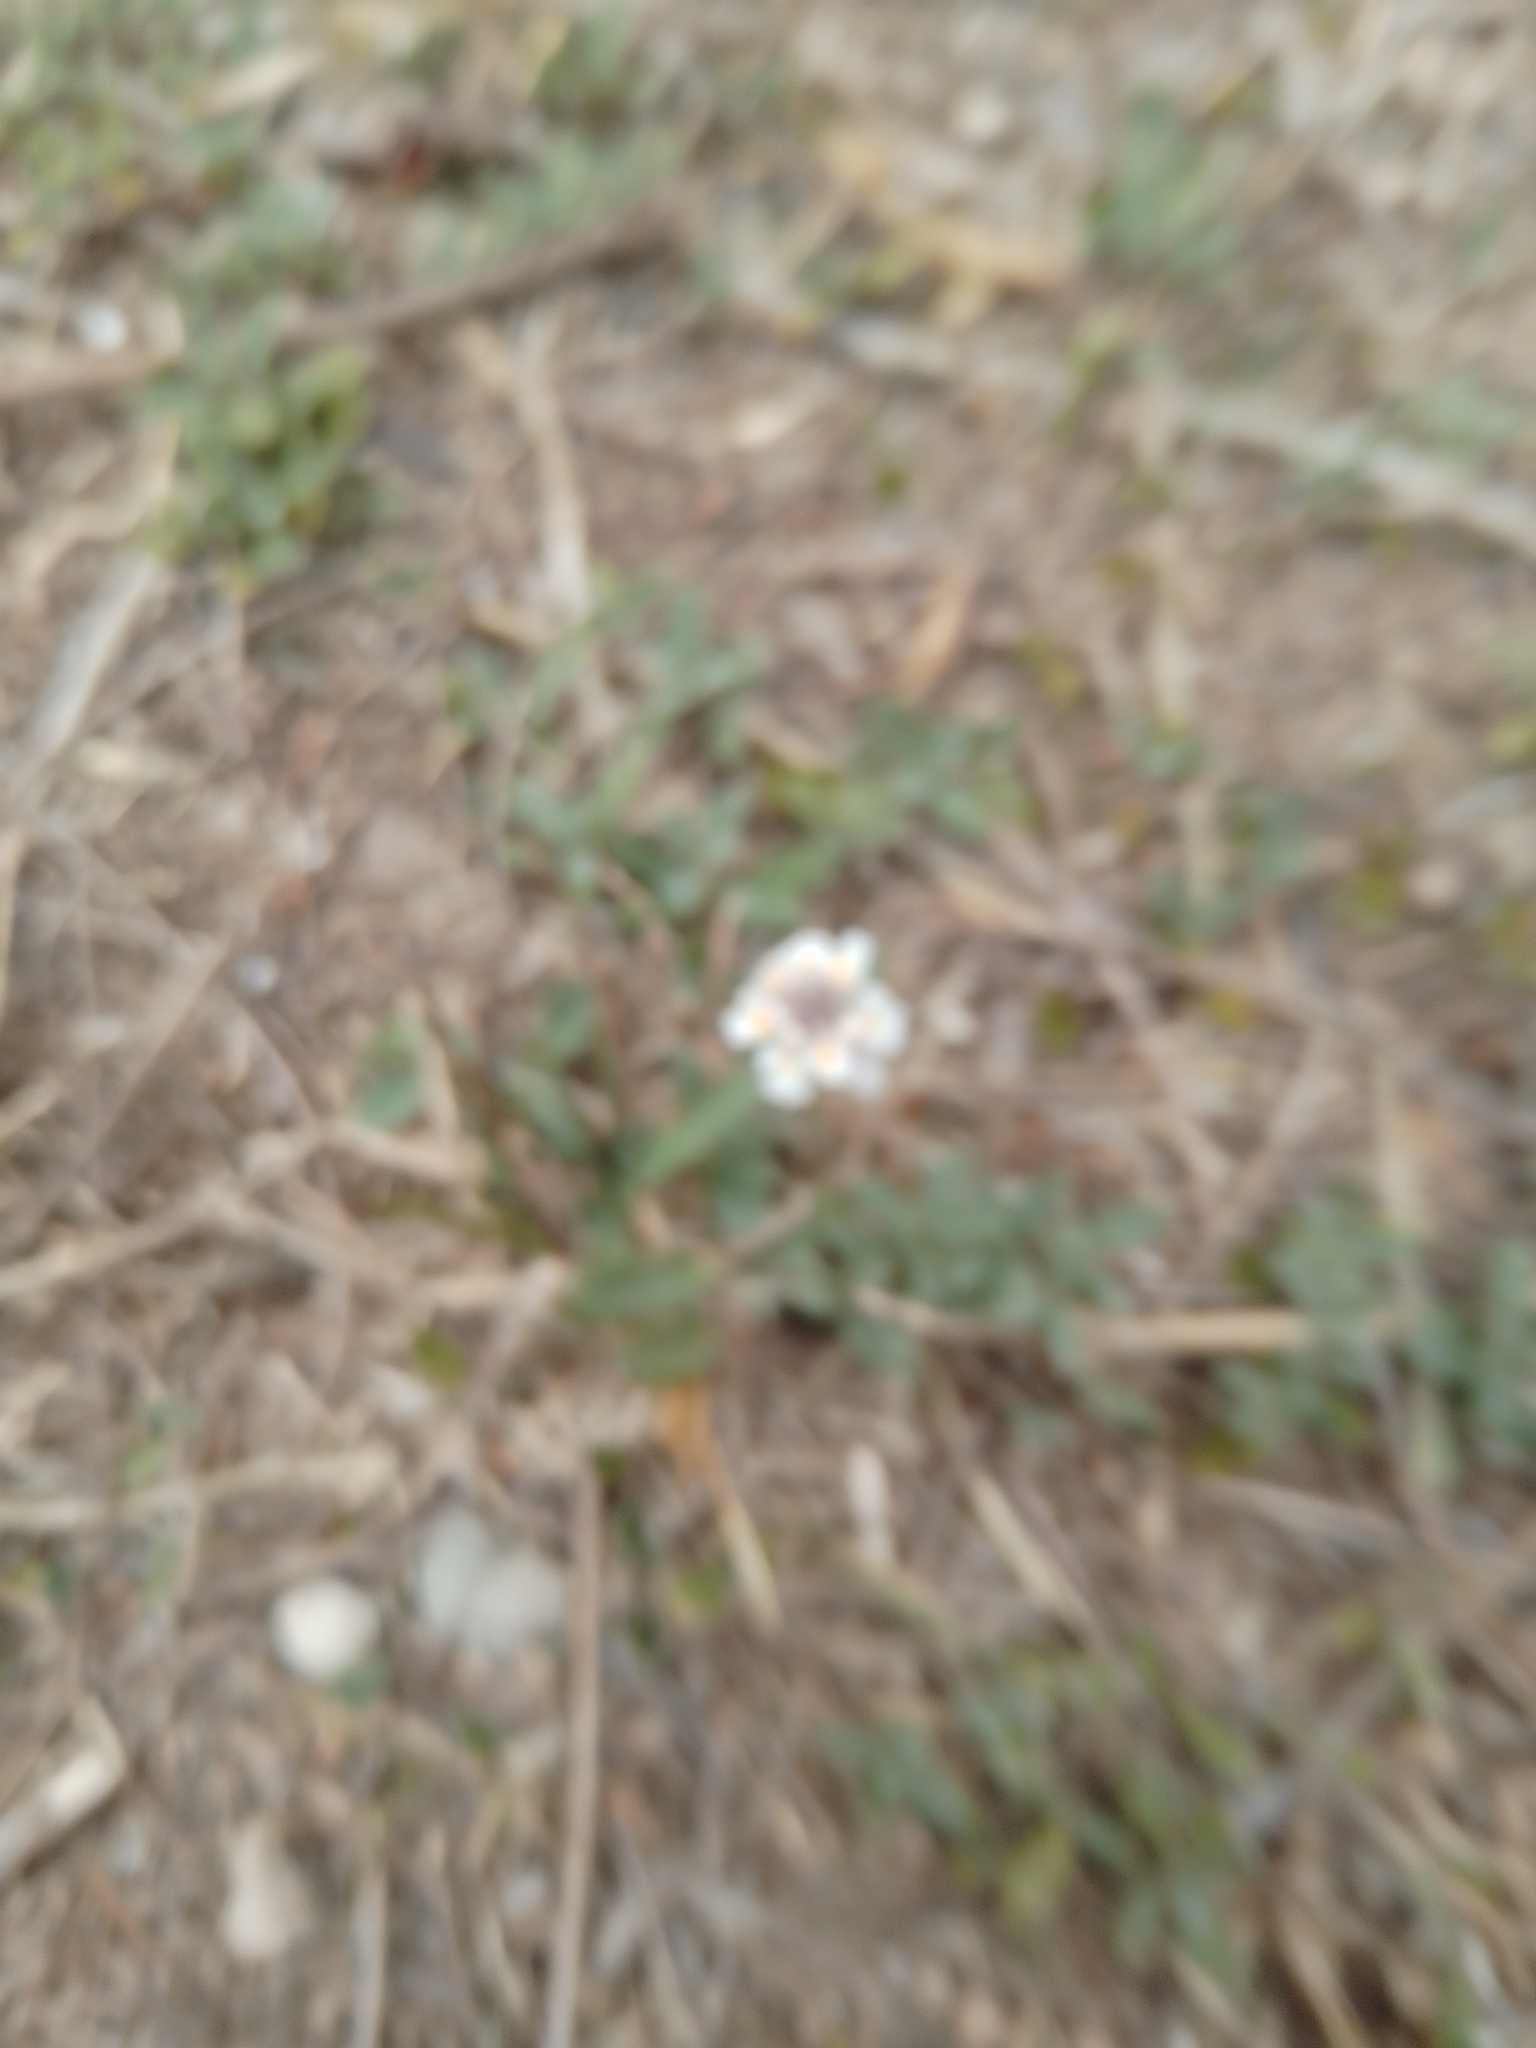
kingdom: Plantae
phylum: Tracheophyta
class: Magnoliopsida
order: Lamiales
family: Verbenaceae
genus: Phyla
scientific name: Phyla nodiflora
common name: Frogfruit
